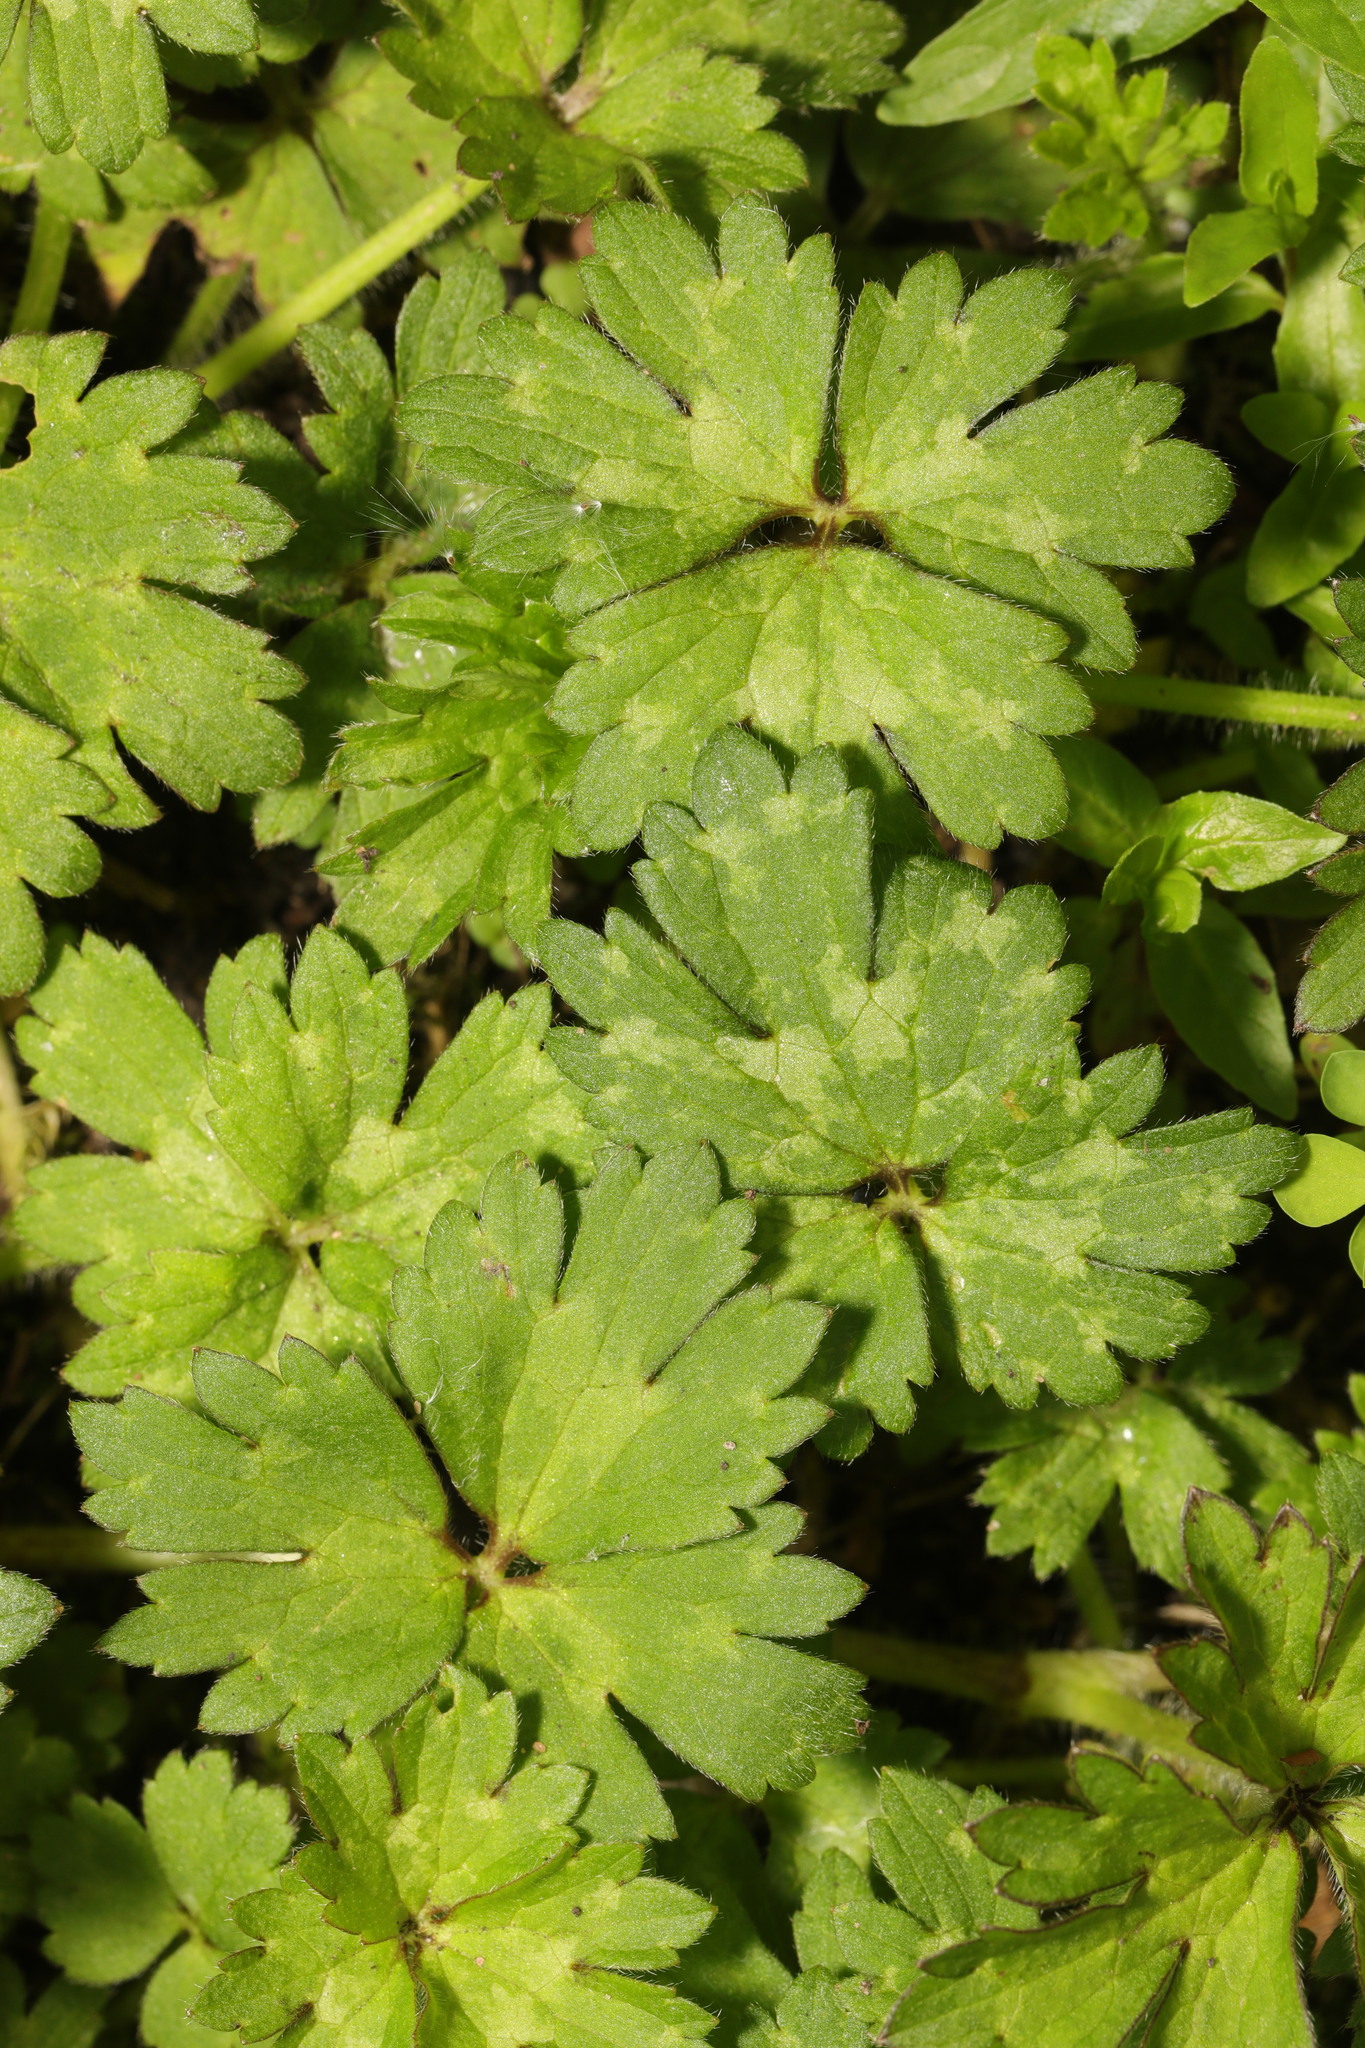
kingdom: Plantae
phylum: Tracheophyta
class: Magnoliopsida
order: Ranunculales
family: Ranunculaceae
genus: Ranunculus
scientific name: Ranunculus repens
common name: Creeping buttercup
